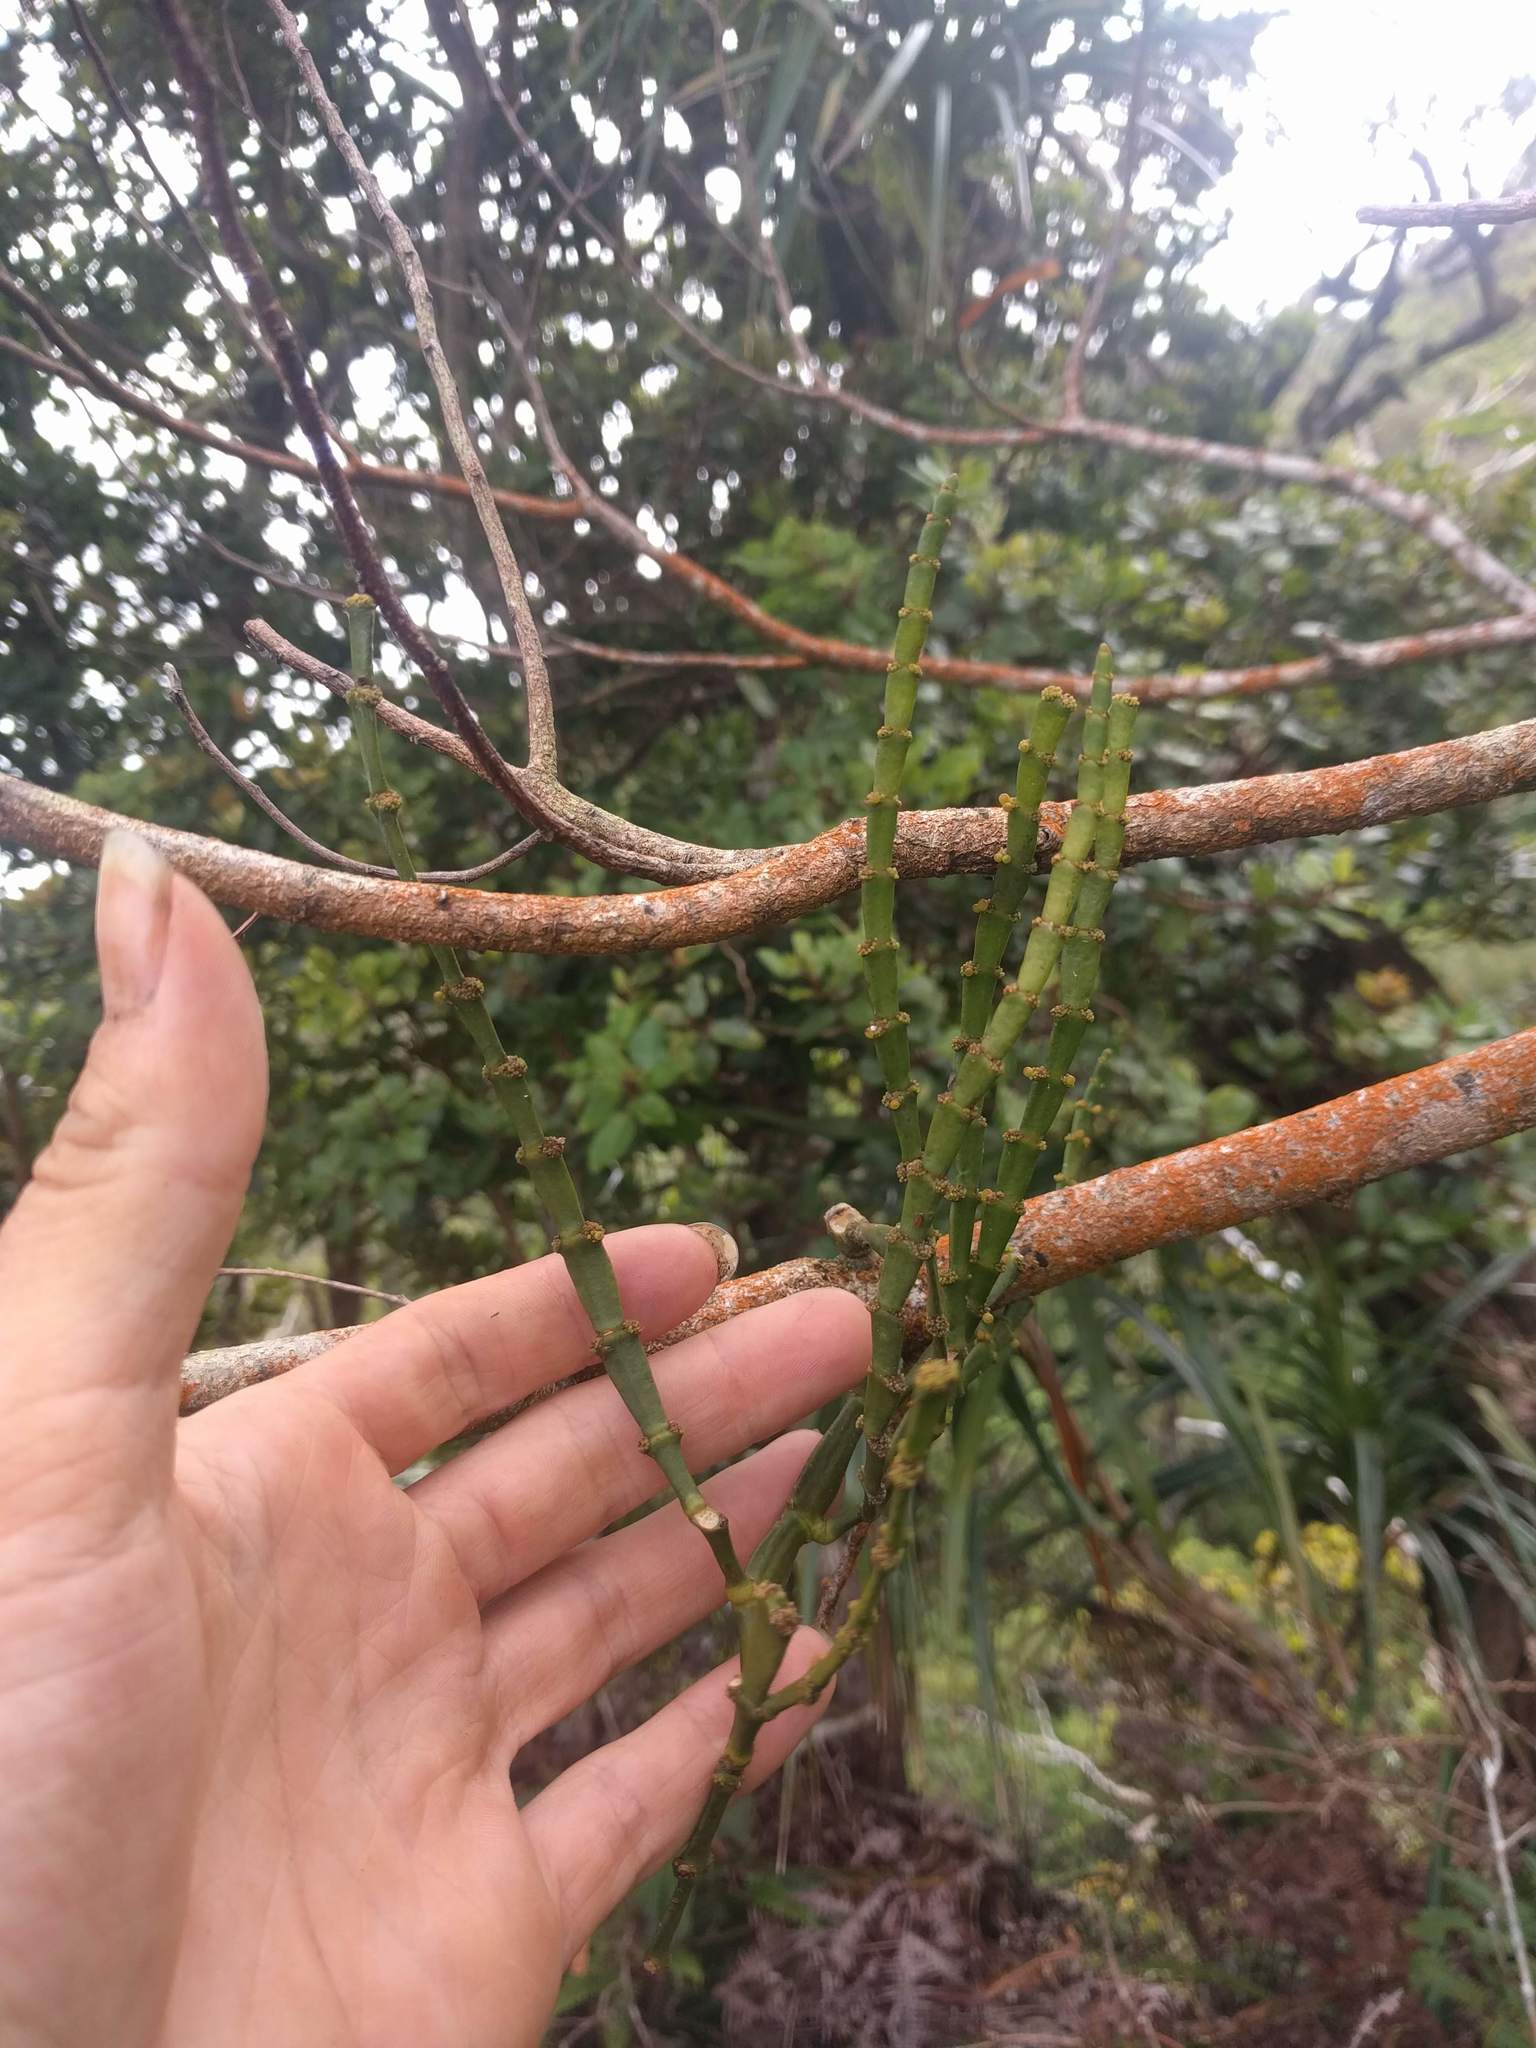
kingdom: Plantae
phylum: Tracheophyta
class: Magnoliopsida
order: Santalales
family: Viscaceae
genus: Korthalsella
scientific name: Korthalsella complanata
